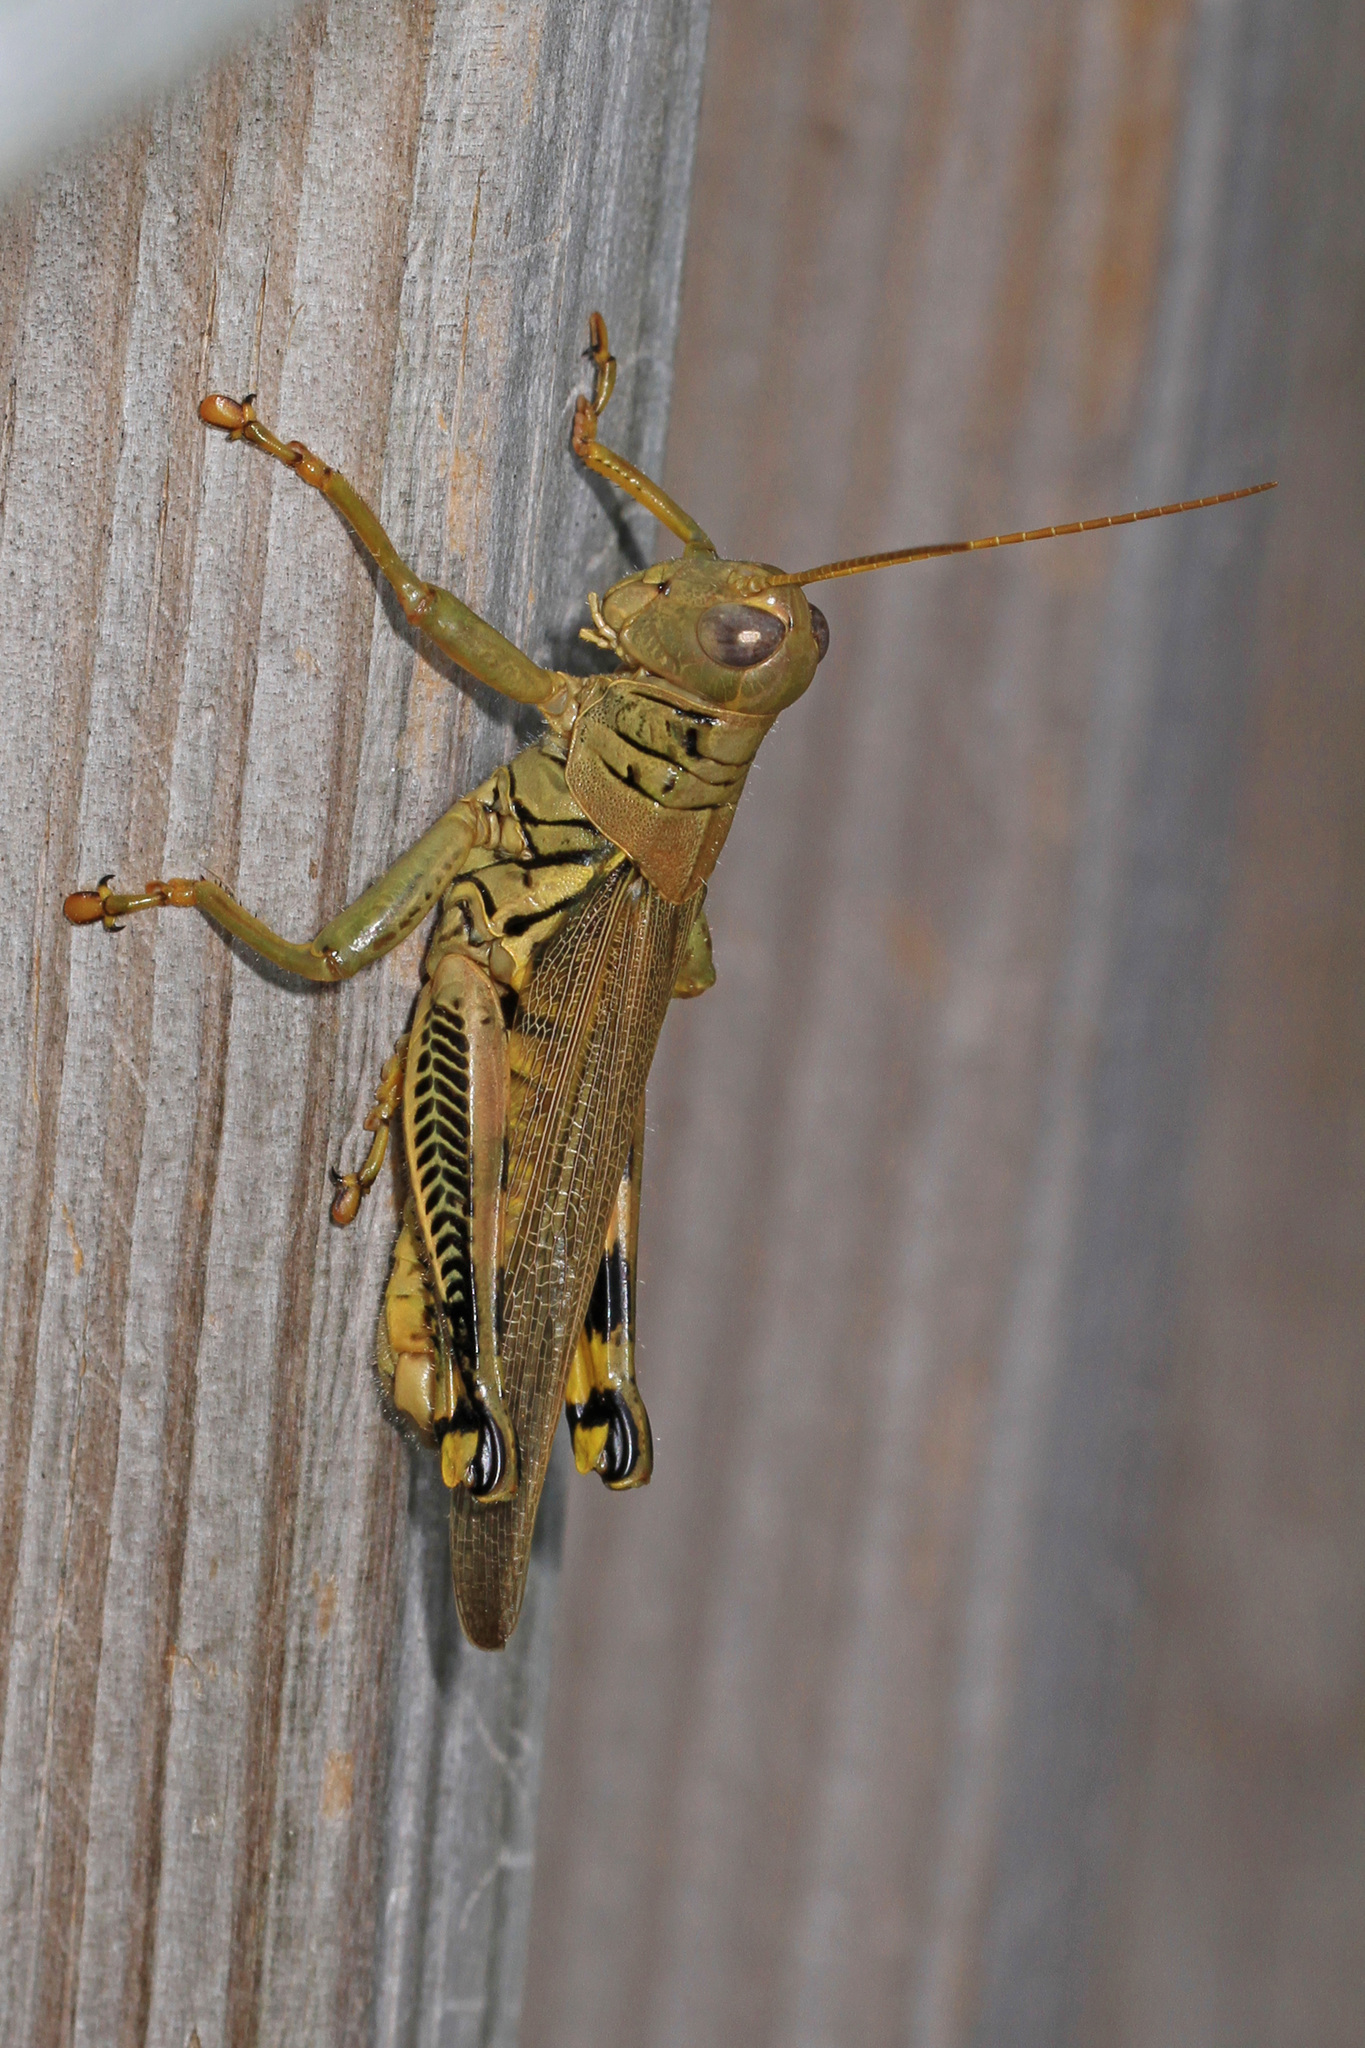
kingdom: Animalia
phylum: Arthropoda
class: Insecta
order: Orthoptera
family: Acrididae
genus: Melanoplus
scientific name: Melanoplus differentialis
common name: Differential grasshopper
